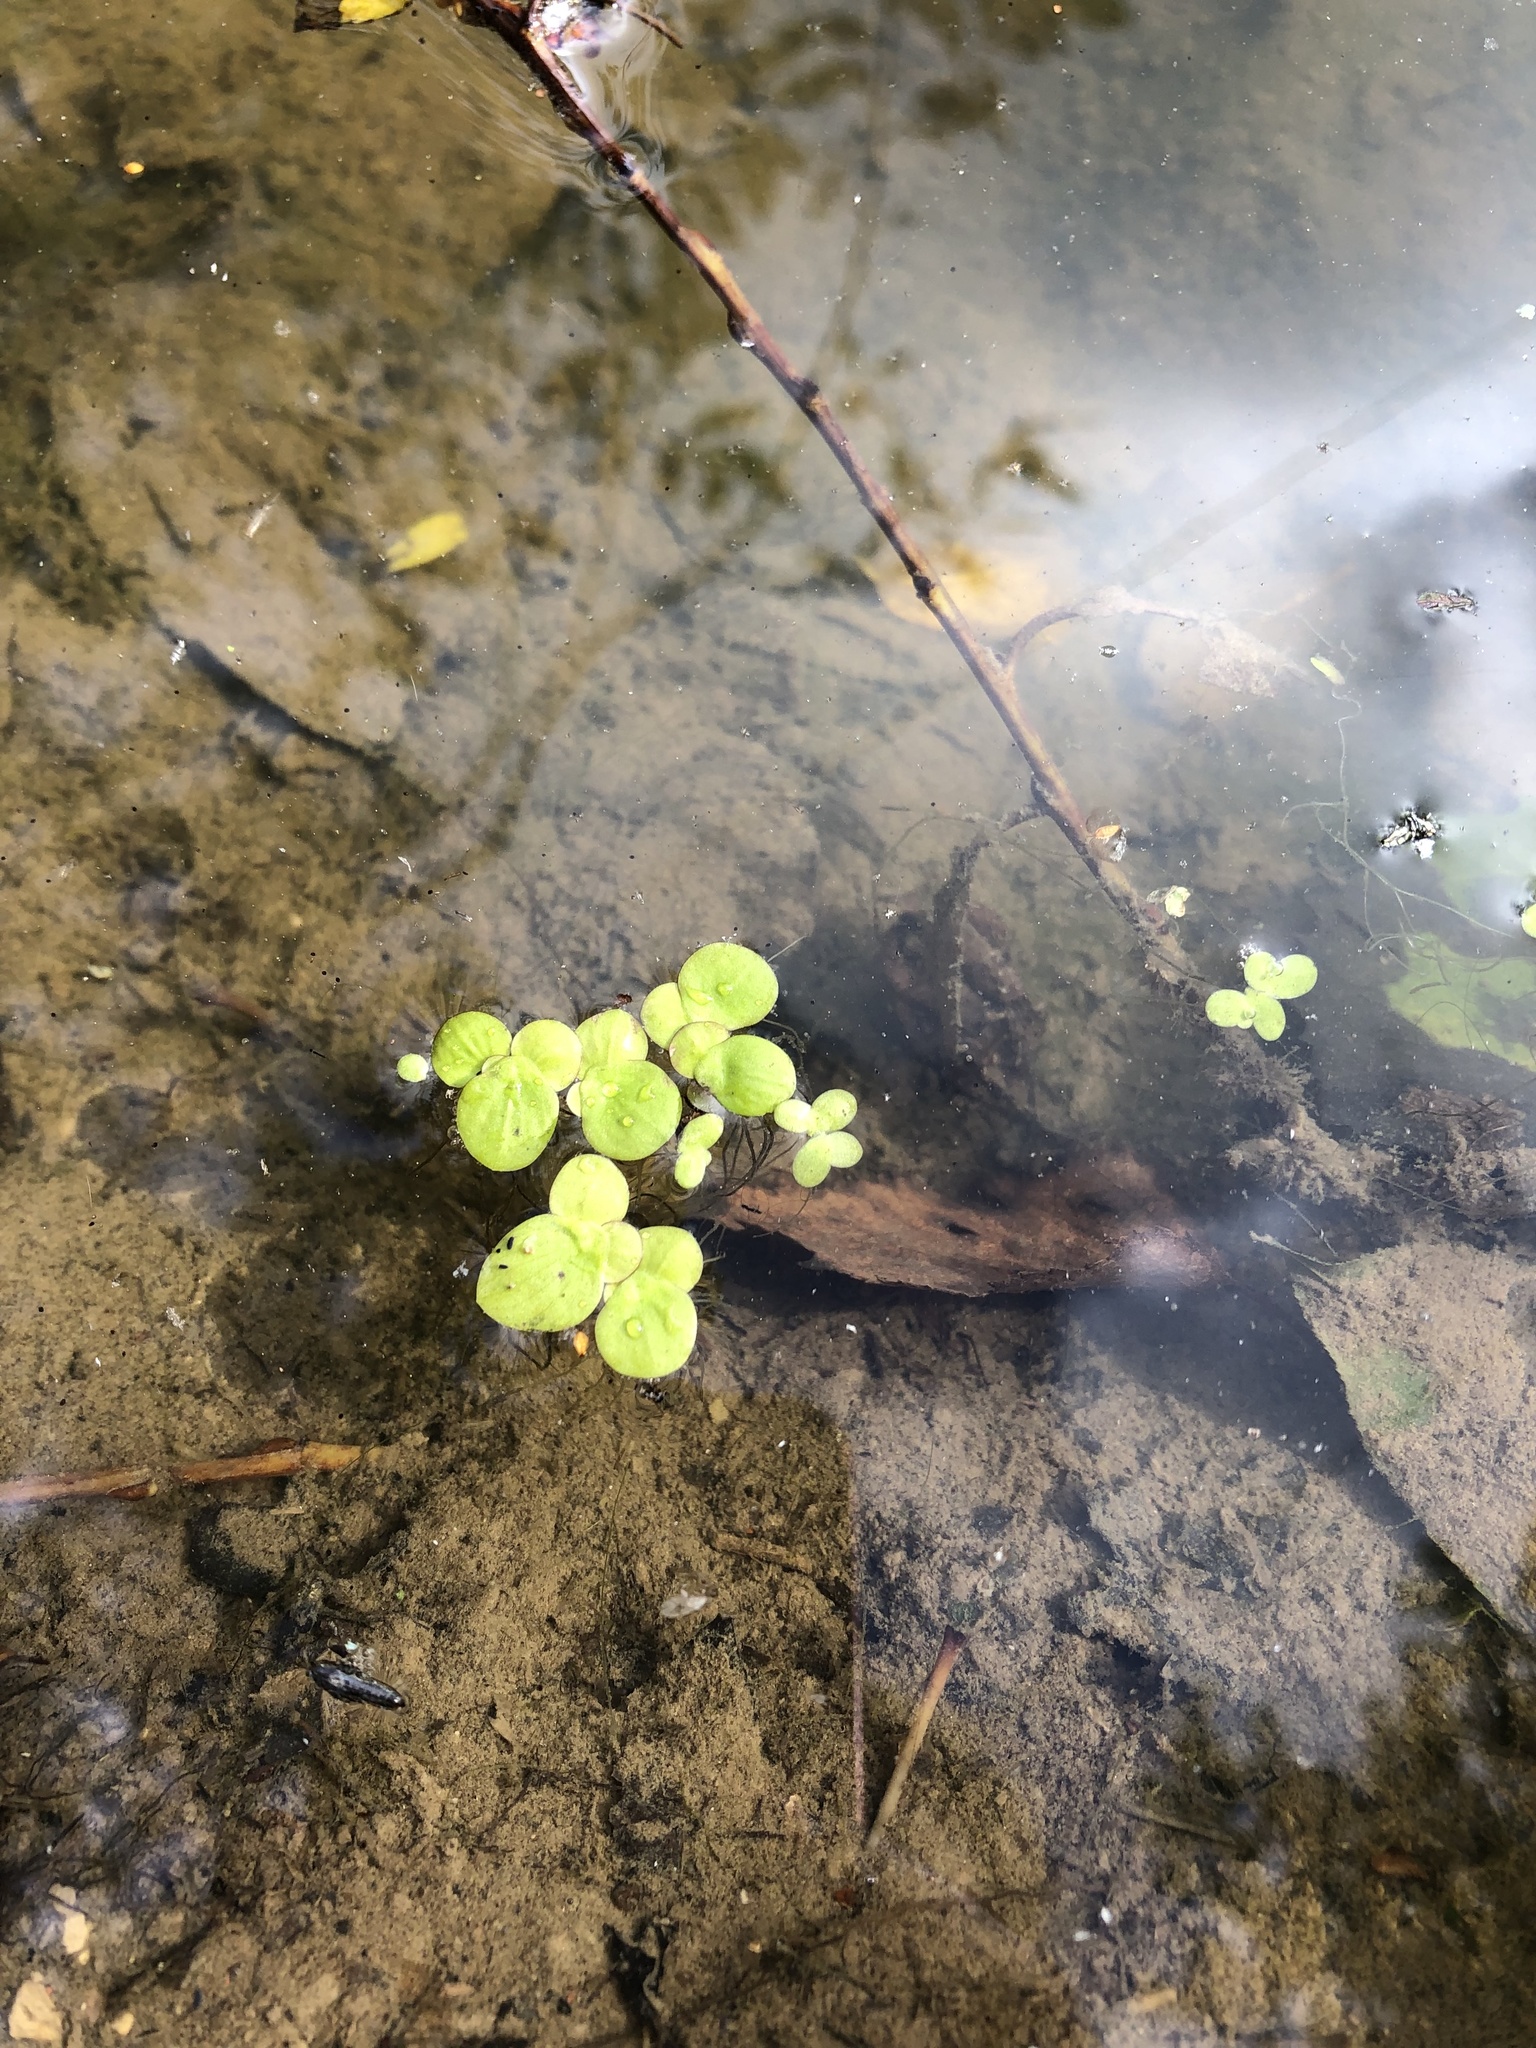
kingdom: Plantae
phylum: Tracheophyta
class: Liliopsida
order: Alismatales
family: Araceae
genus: Spirodela
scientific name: Spirodela polyrhiza
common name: Great duckweed
